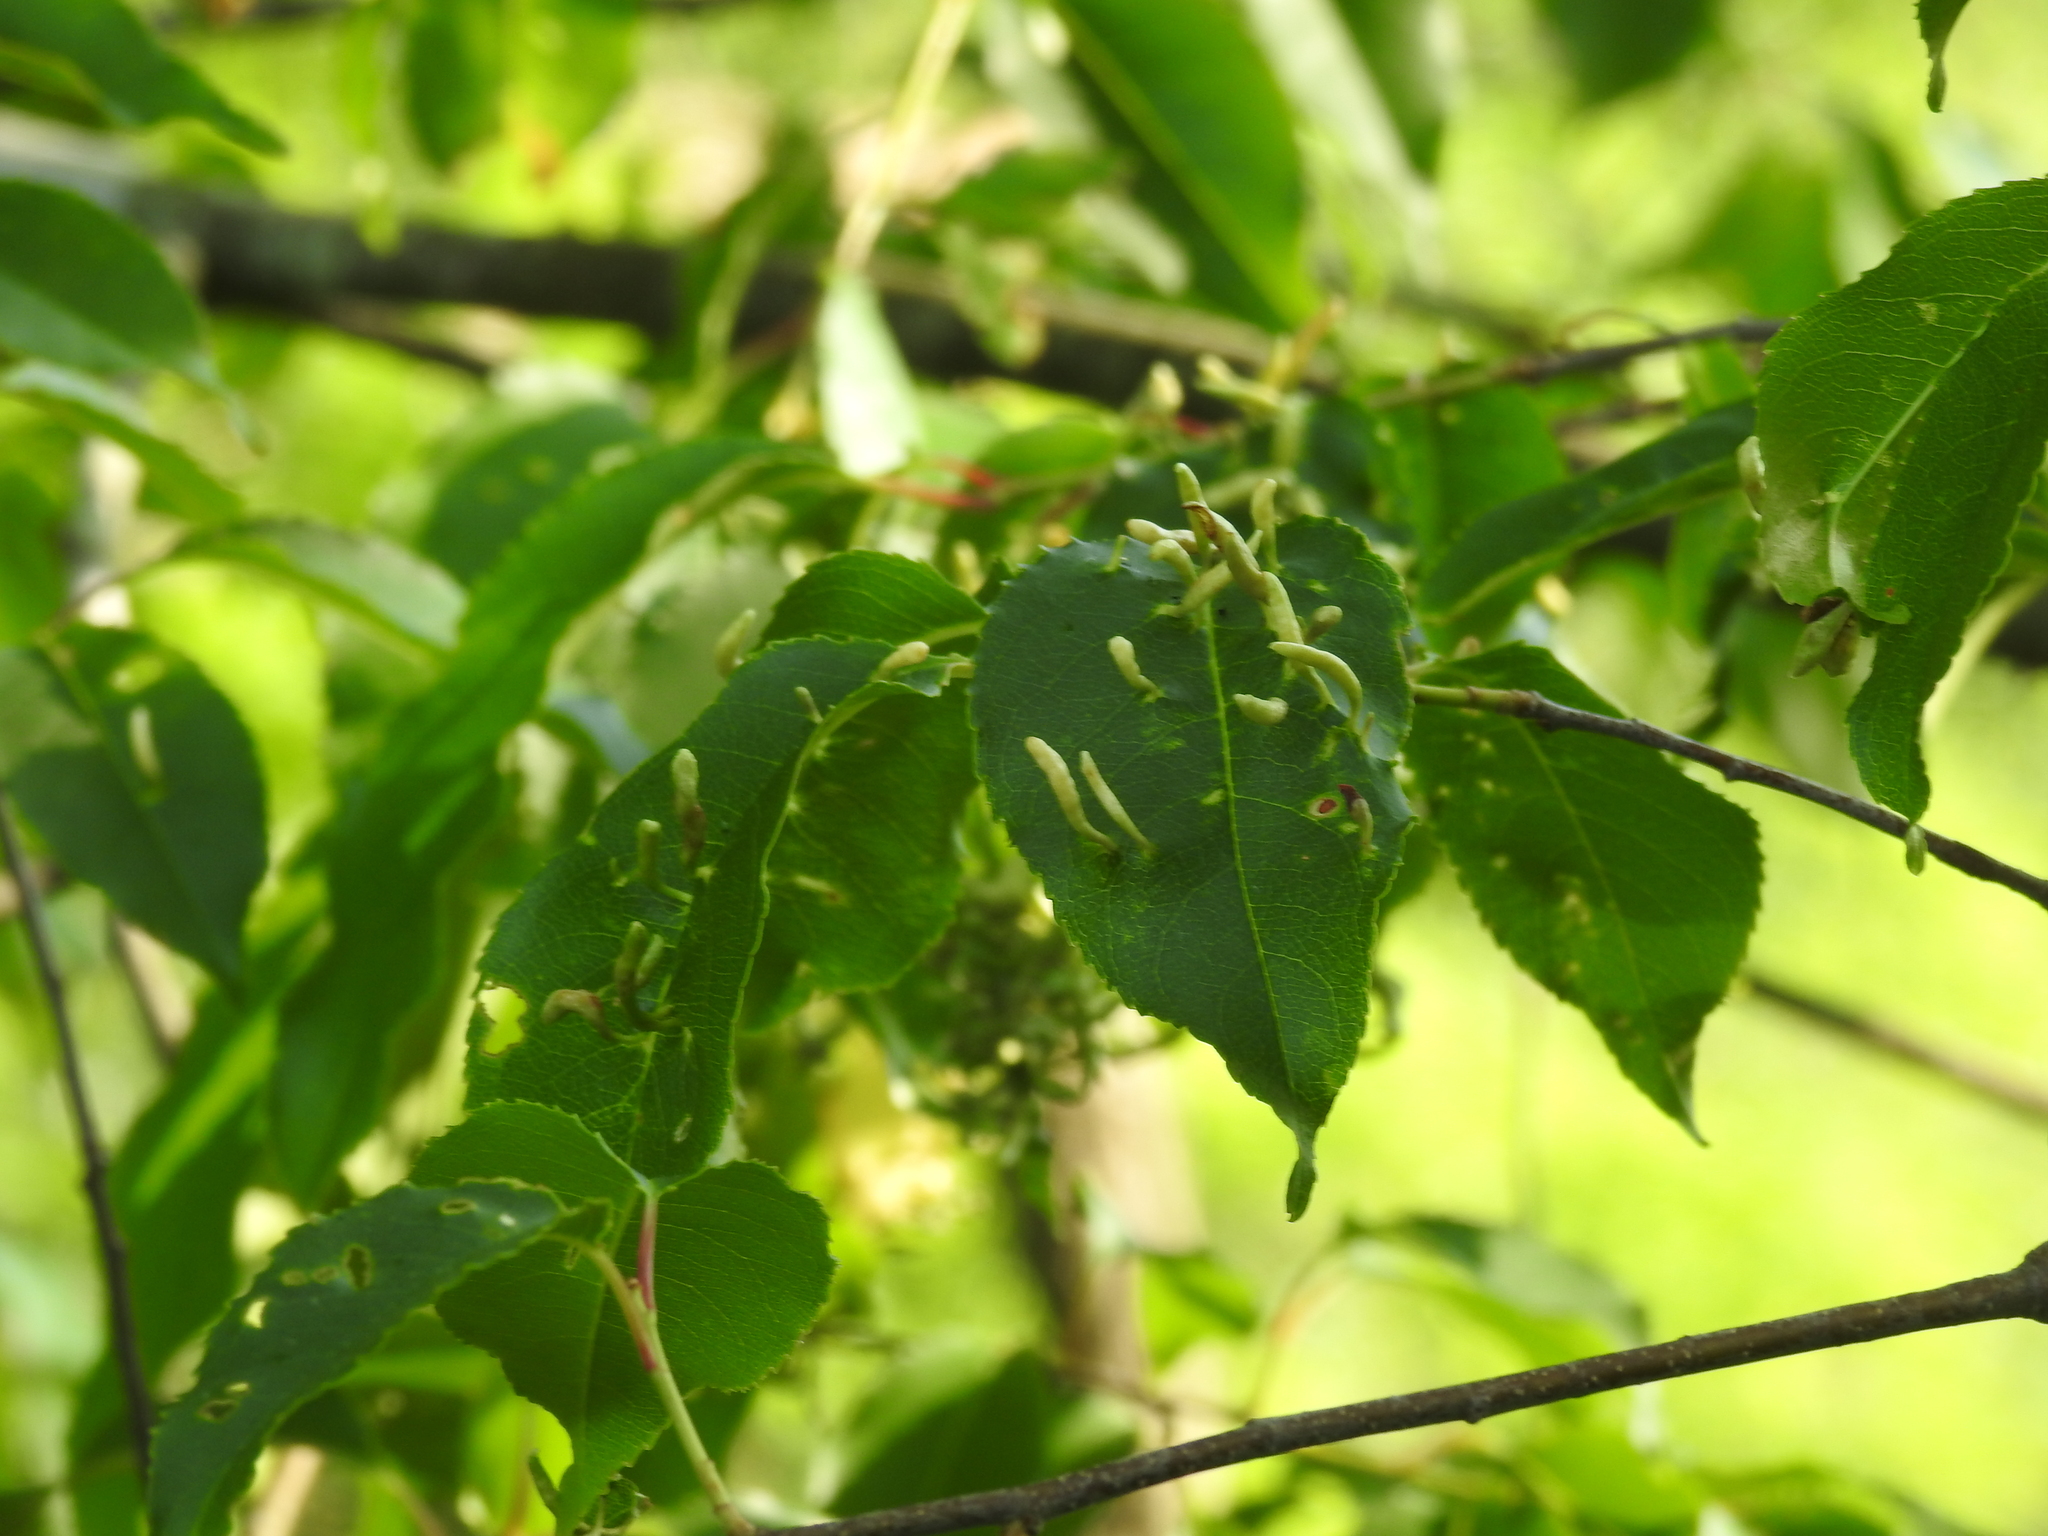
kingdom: Animalia
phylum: Arthropoda
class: Arachnida
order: Trombidiformes
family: Eriophyidae
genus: Eriophyes
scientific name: Eriophyes
